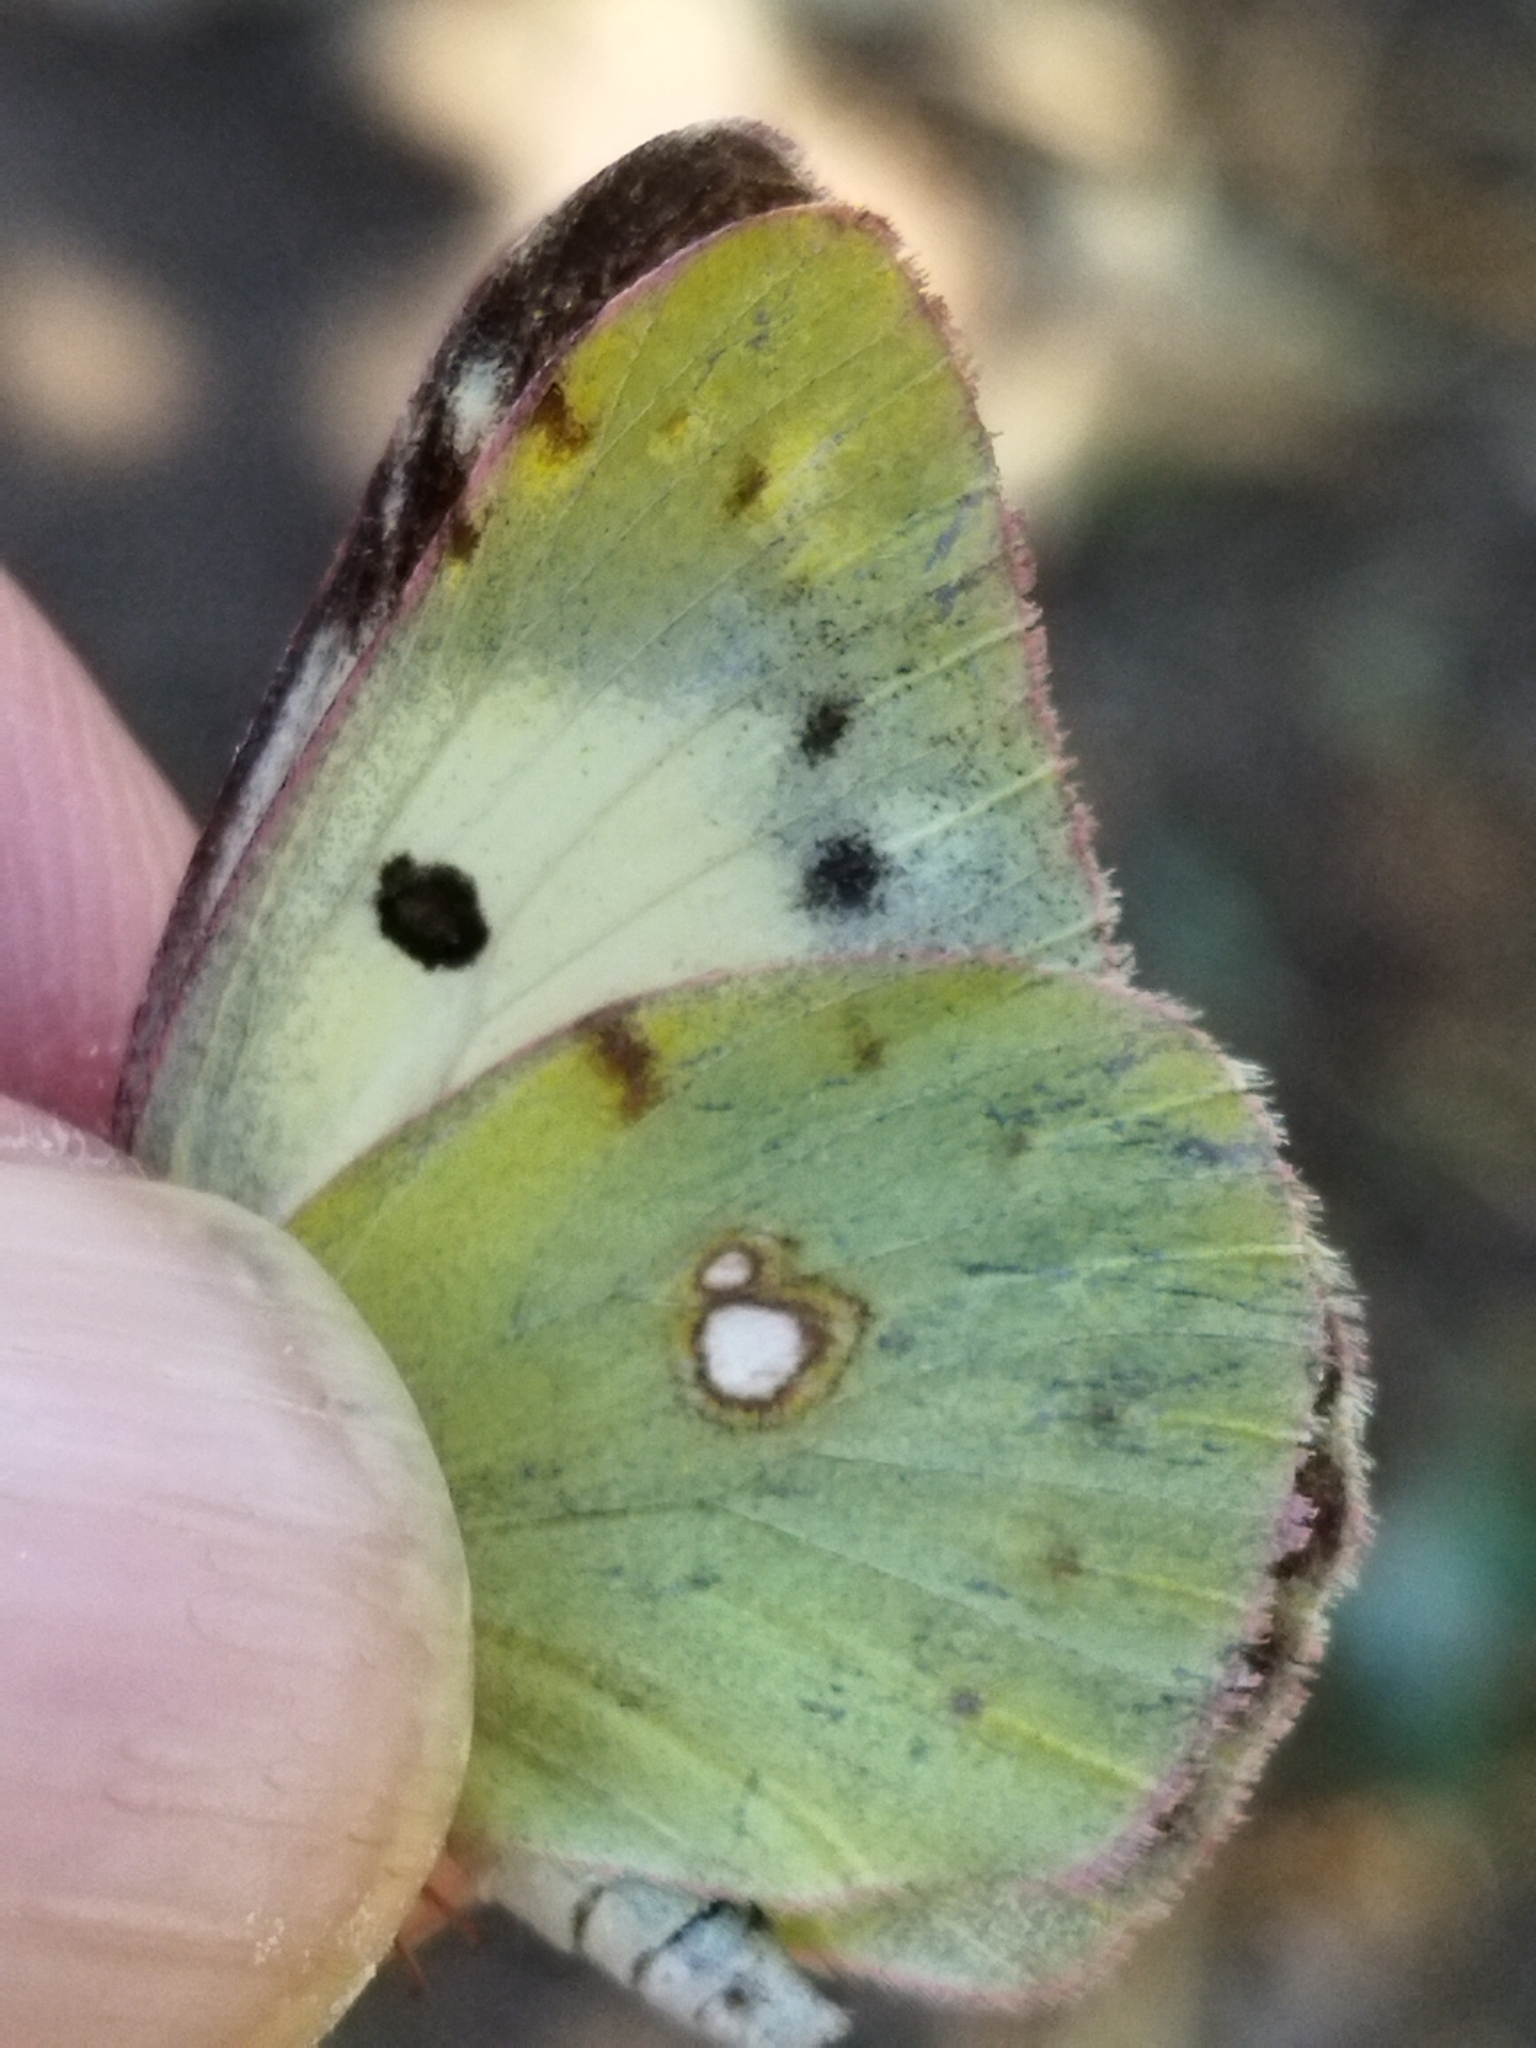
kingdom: Animalia
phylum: Arthropoda
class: Insecta
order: Lepidoptera
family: Pieridae
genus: Colias
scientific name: Colias croceus
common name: Clouded yellow
